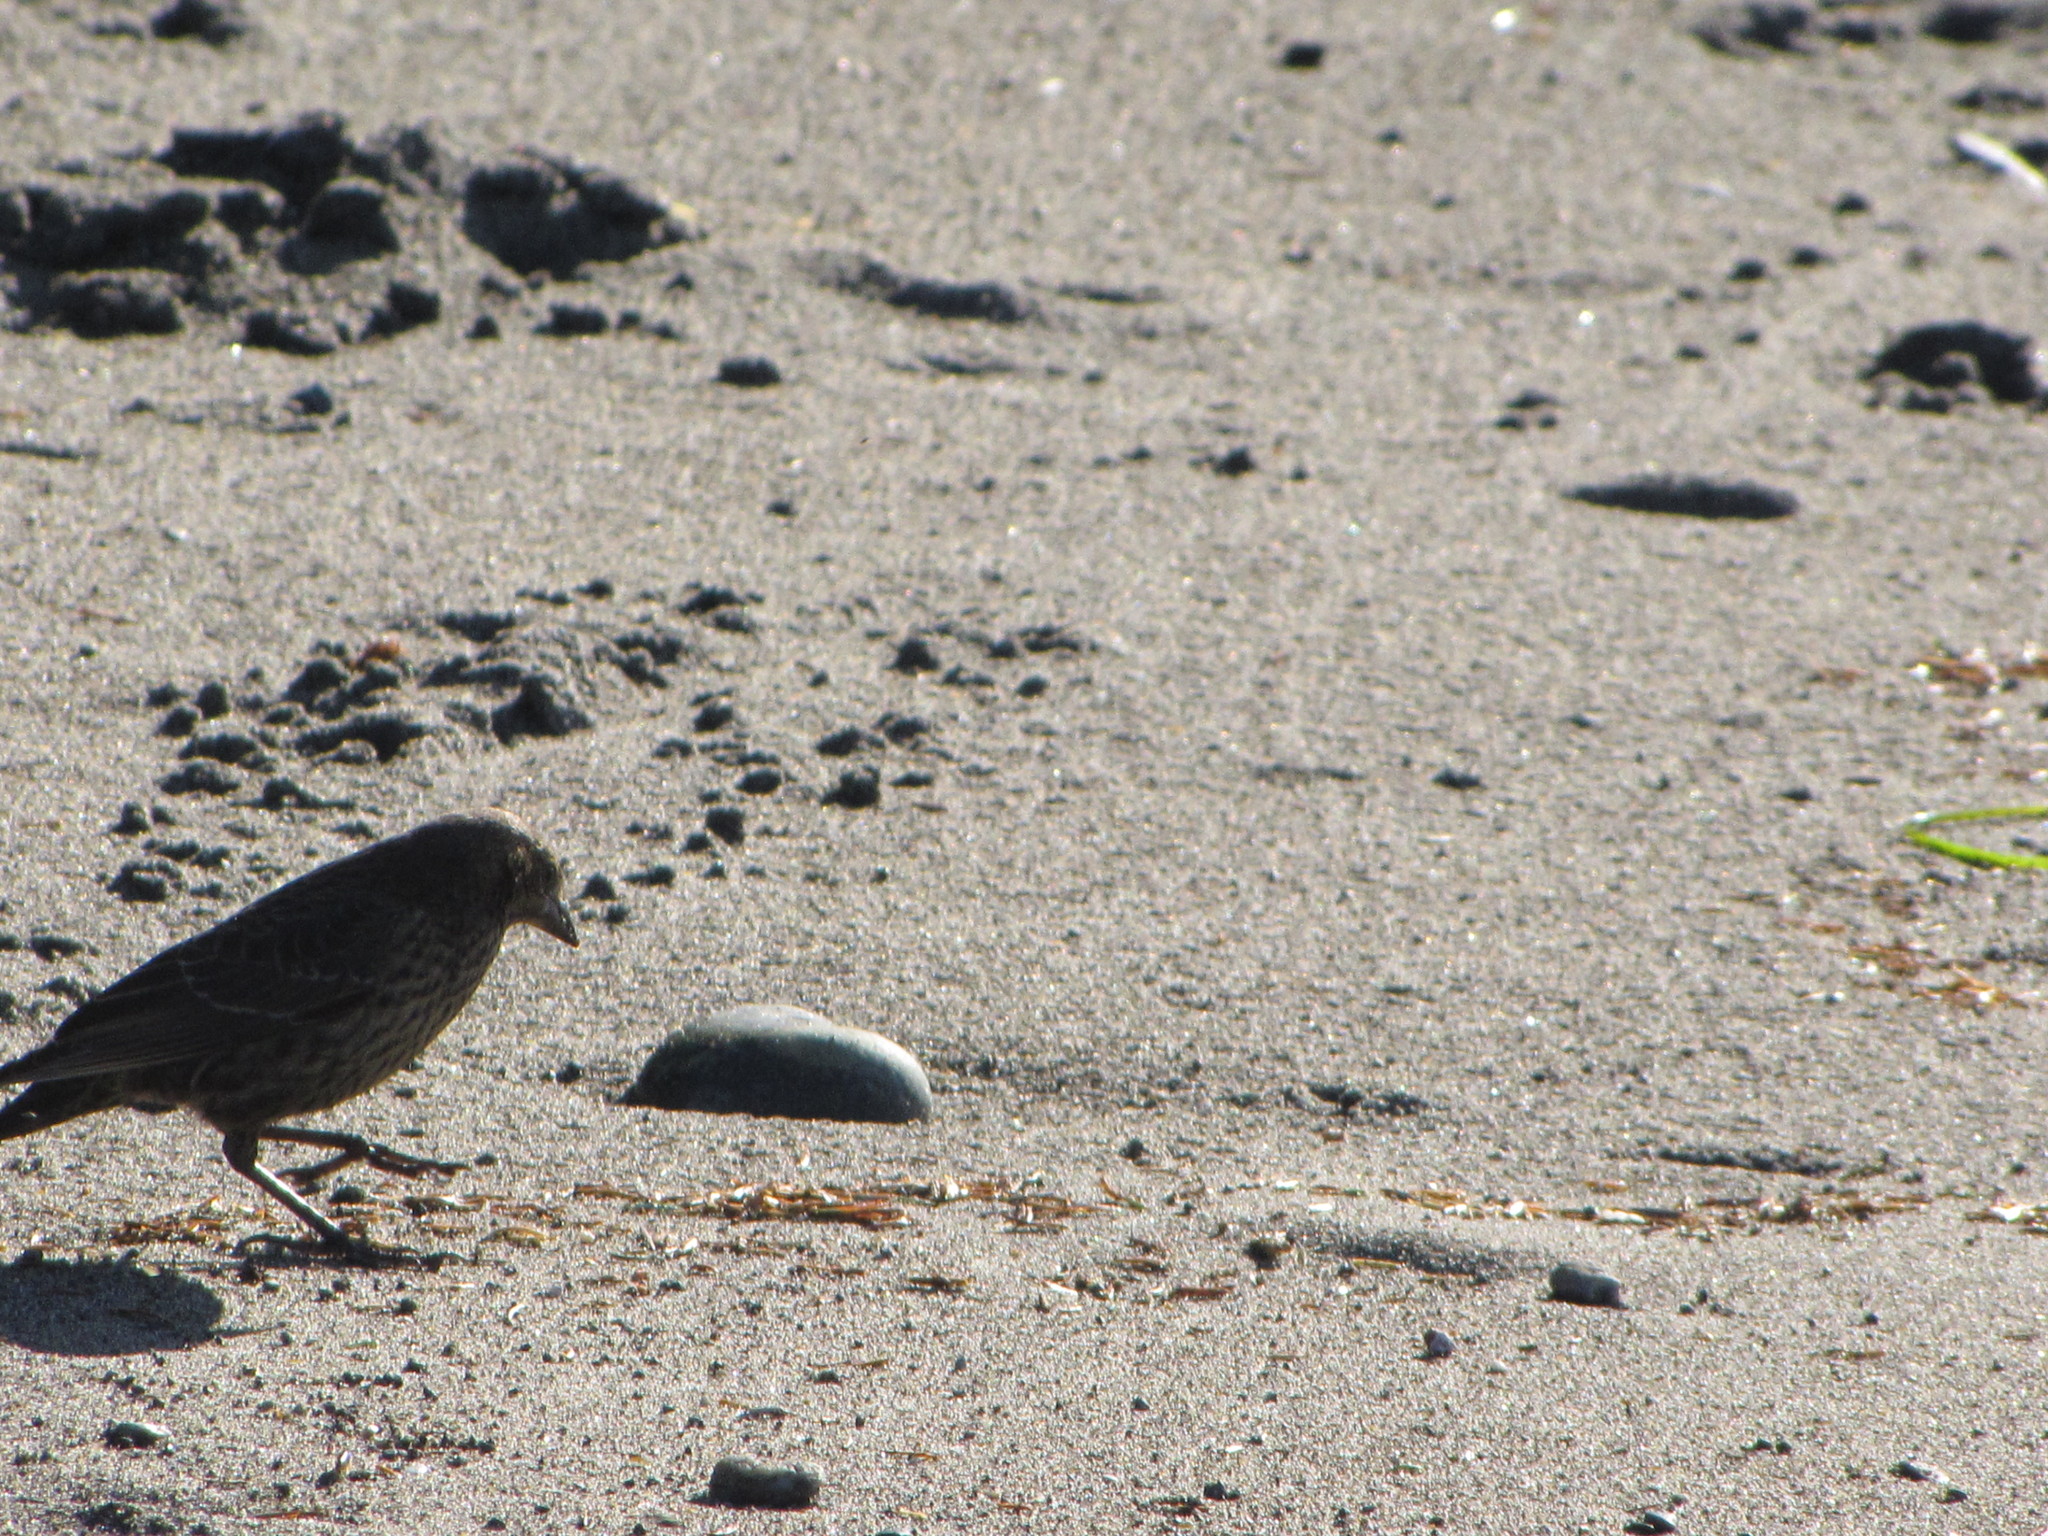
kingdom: Animalia
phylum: Chordata
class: Aves
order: Passeriformes
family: Icteridae
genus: Molothrus
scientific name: Molothrus ater
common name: Brown-headed cowbird
